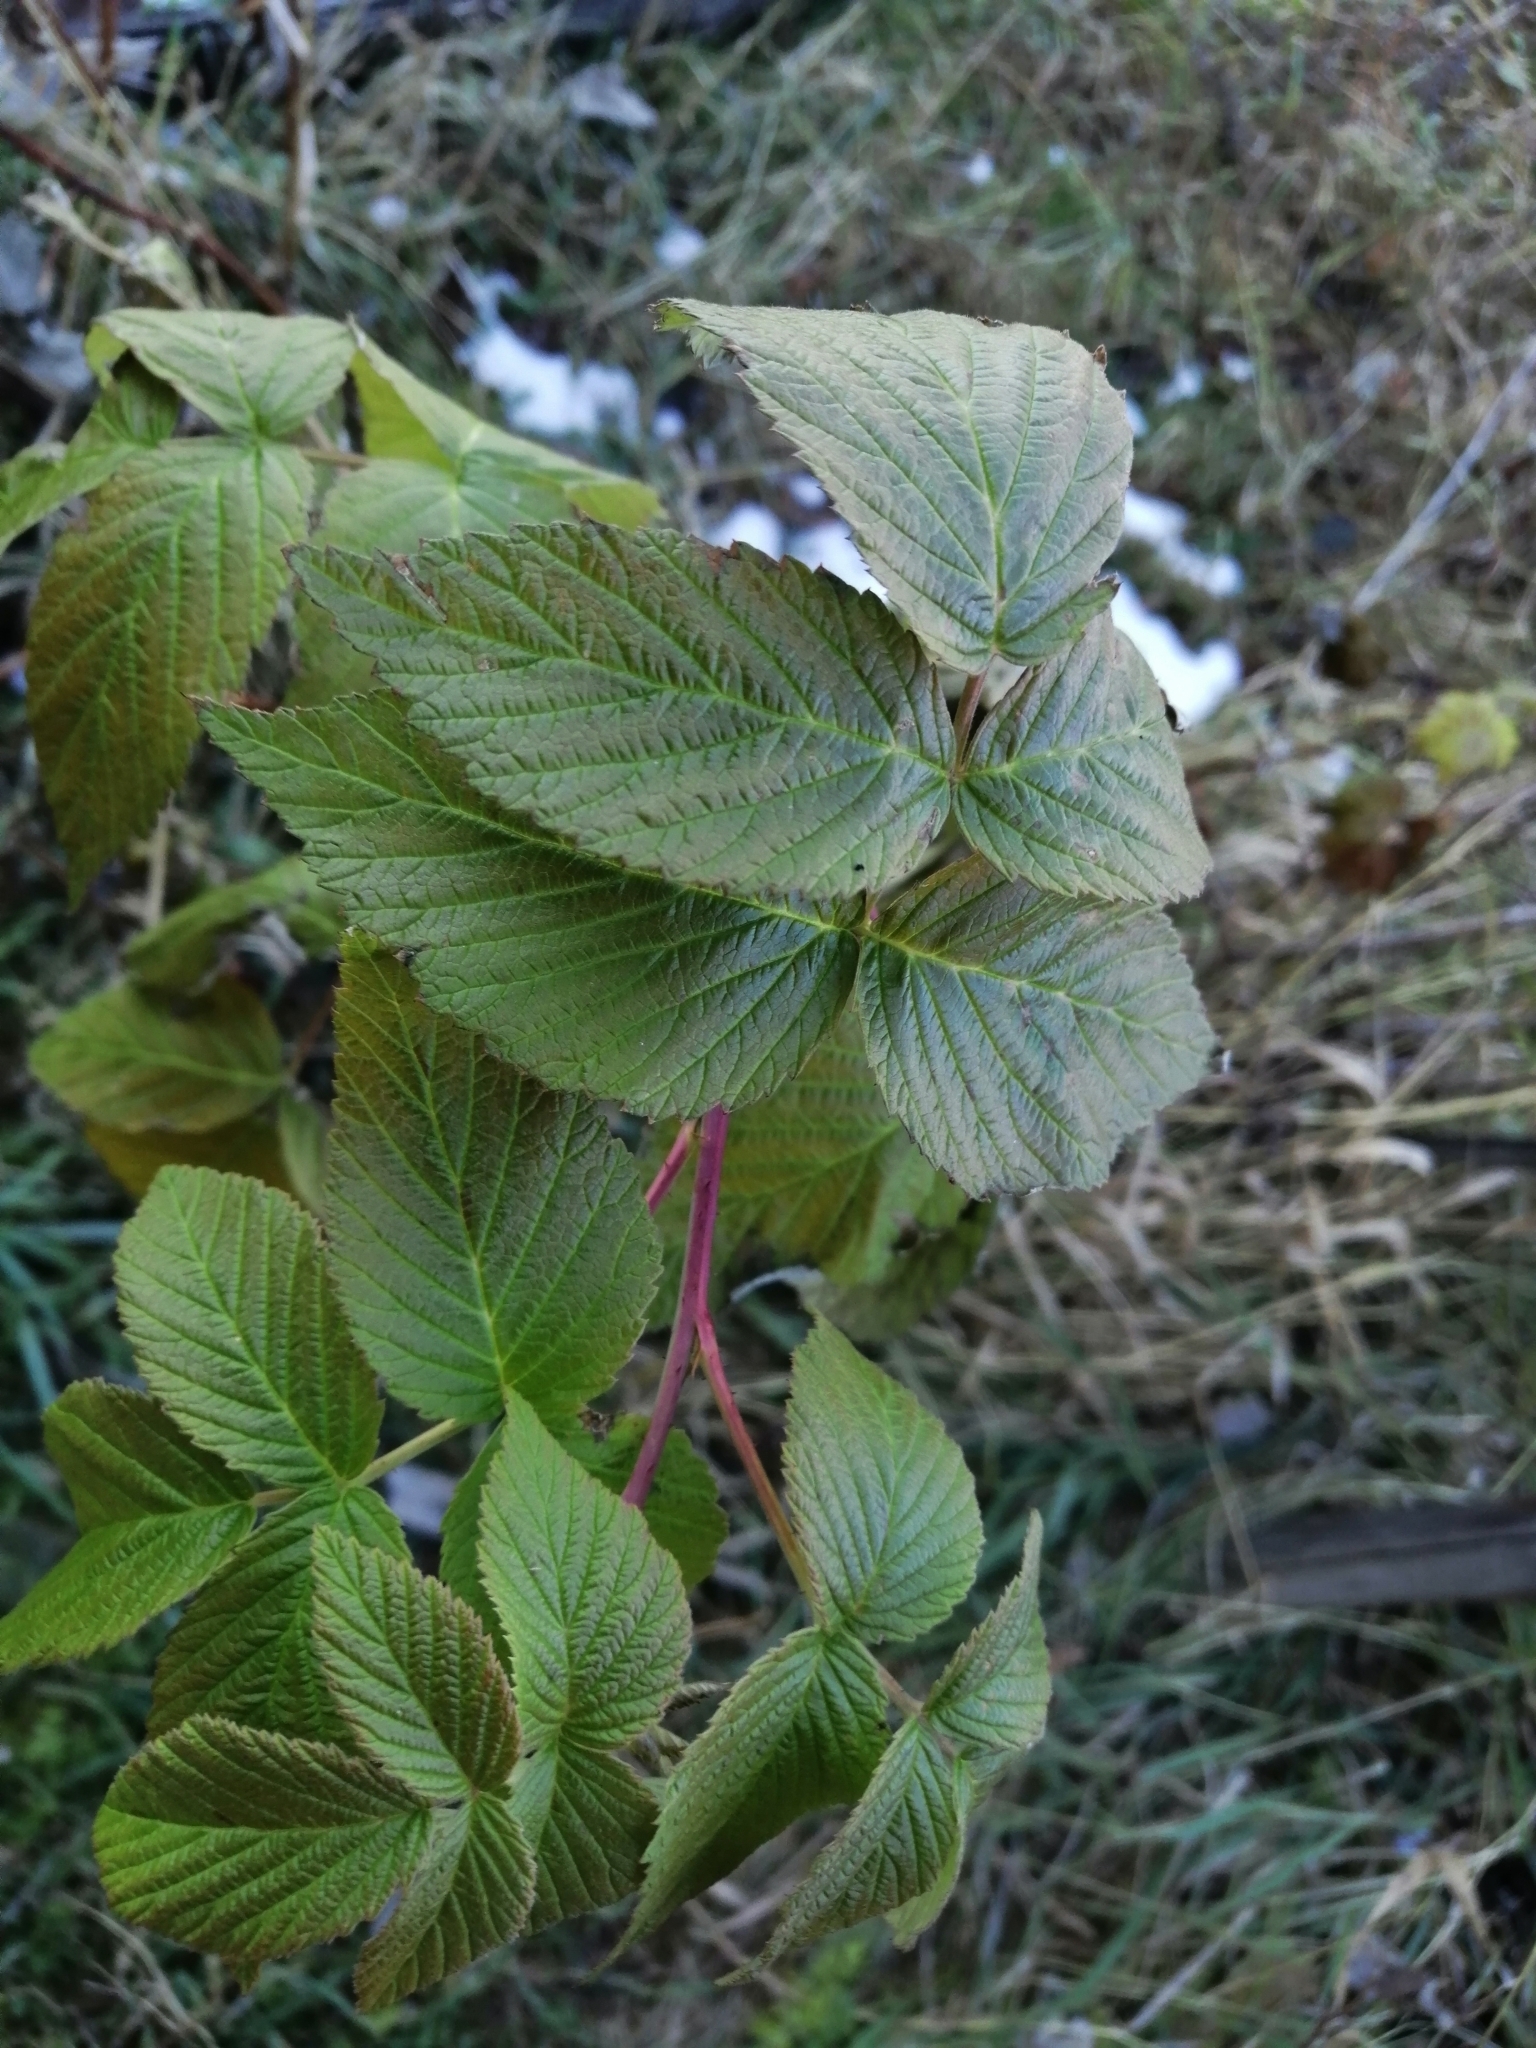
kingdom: Plantae
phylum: Tracheophyta
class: Magnoliopsida
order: Rosales
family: Rosaceae
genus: Rubus
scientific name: Rubus idaeus
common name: Raspberry
